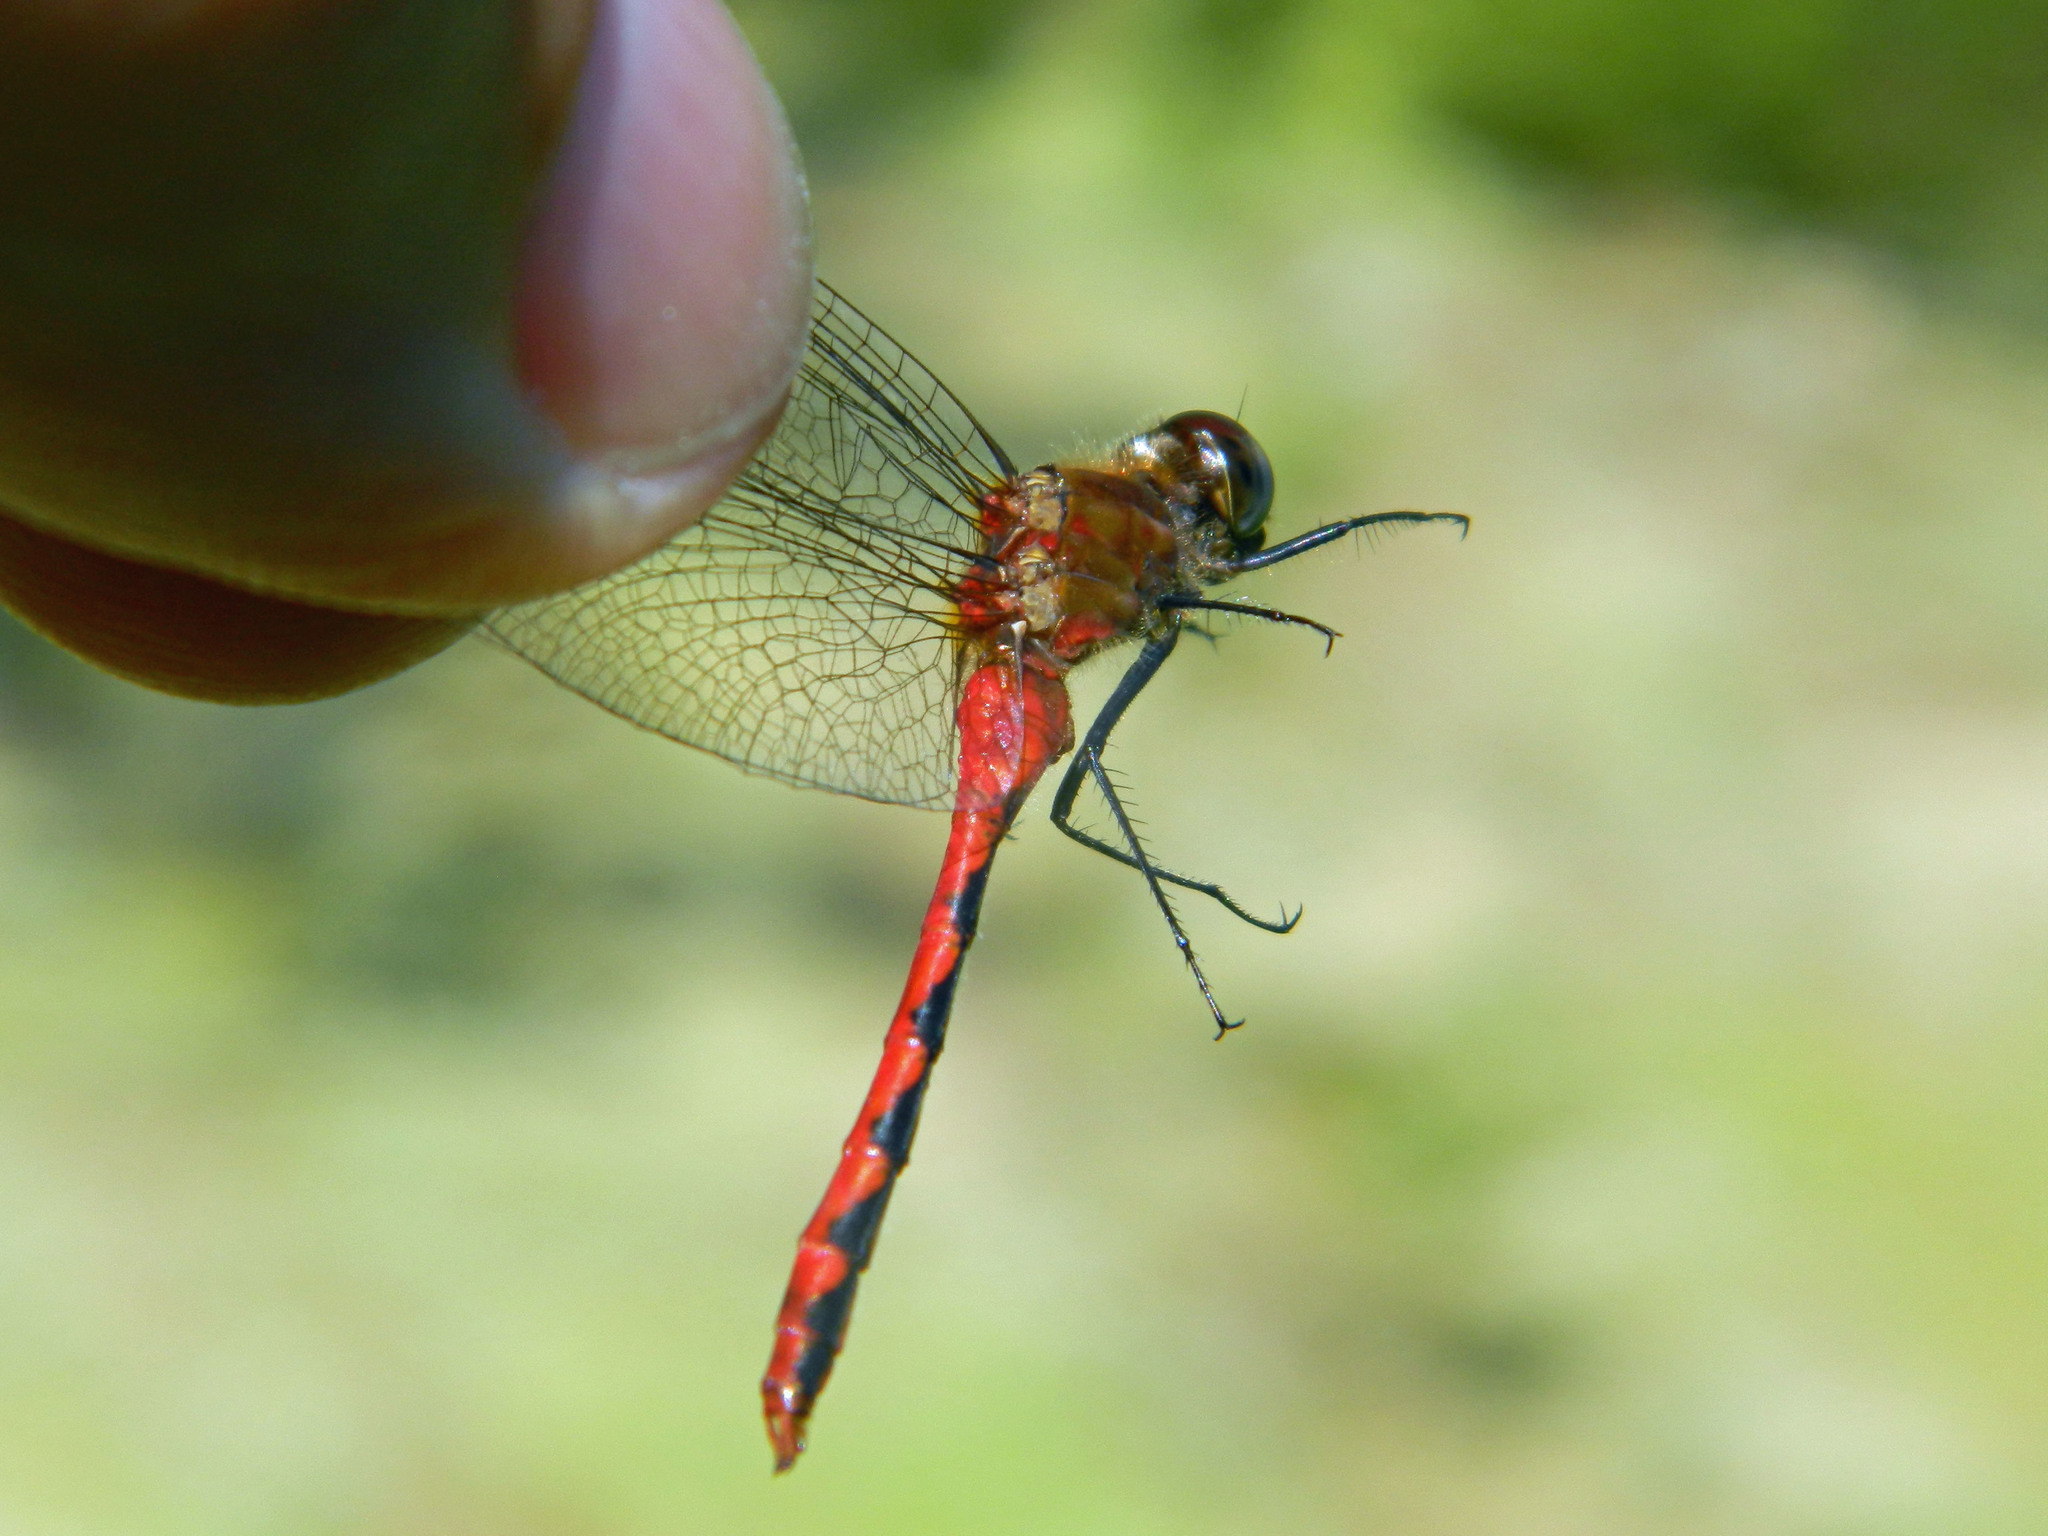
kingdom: Animalia
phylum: Arthropoda
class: Insecta
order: Odonata
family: Libellulidae
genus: Sympetrum
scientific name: Sympetrum obtrusum
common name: White-faced meadowhawk
